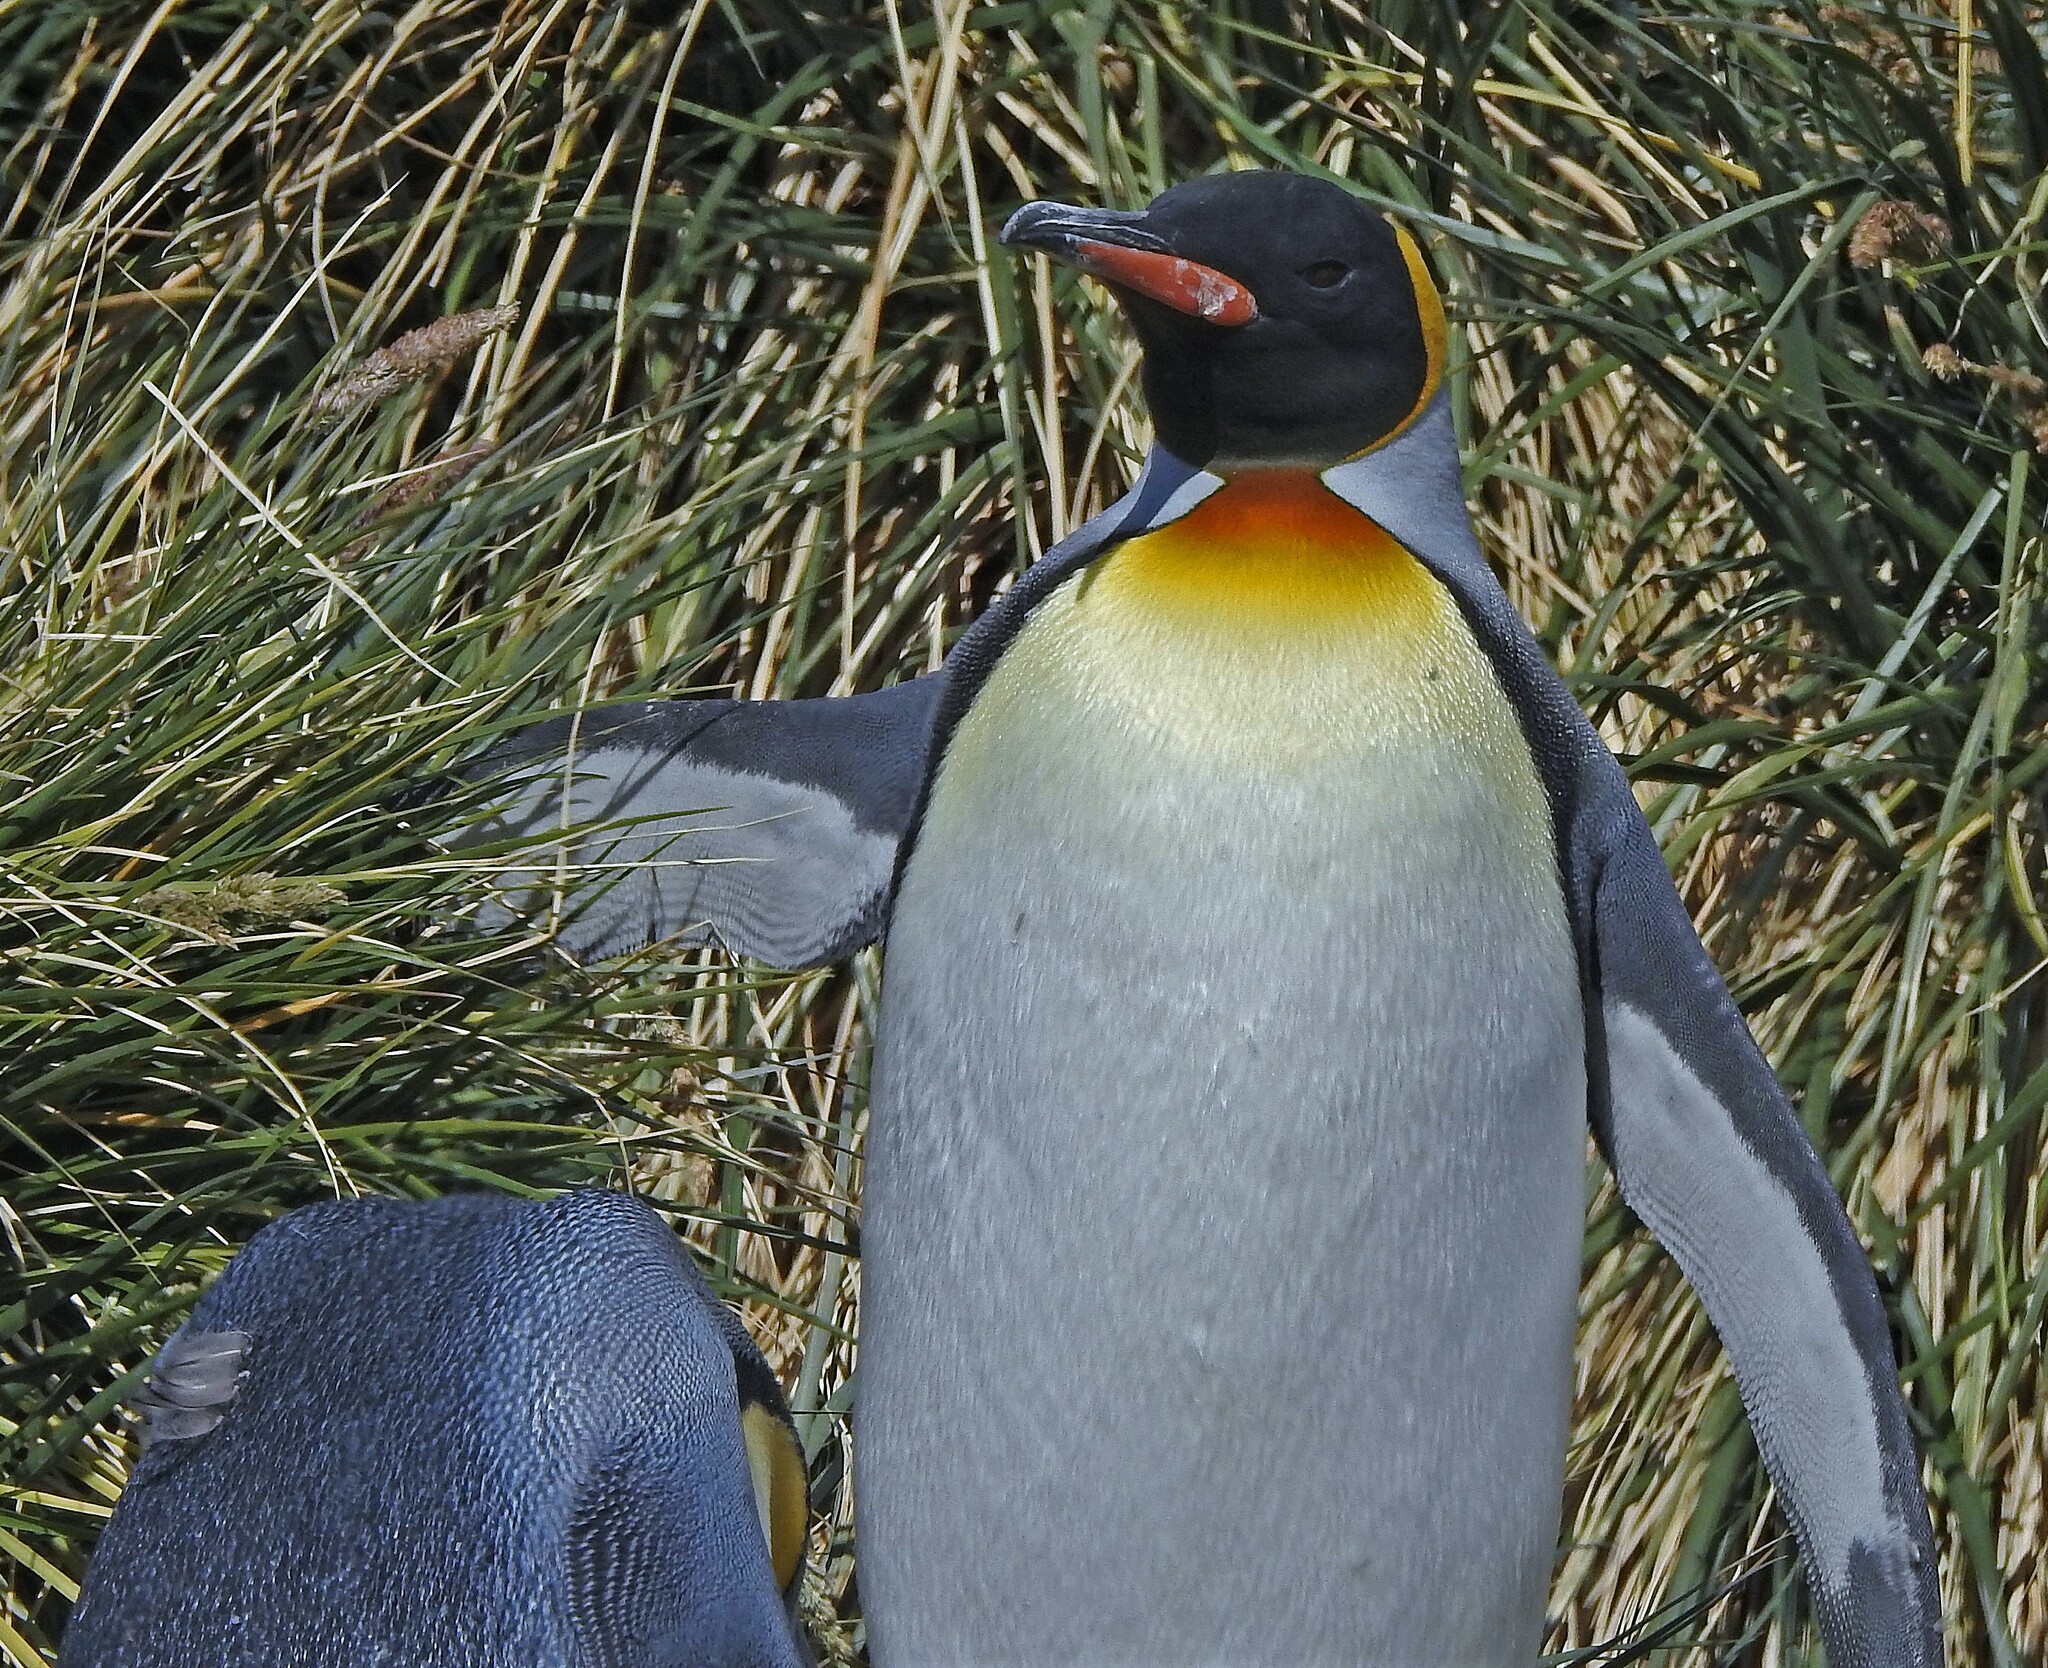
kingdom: Animalia
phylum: Chordata
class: Aves
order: Sphenisciformes
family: Spheniscidae
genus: Aptenodytes
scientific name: Aptenodytes patagonicus
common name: King penguin
